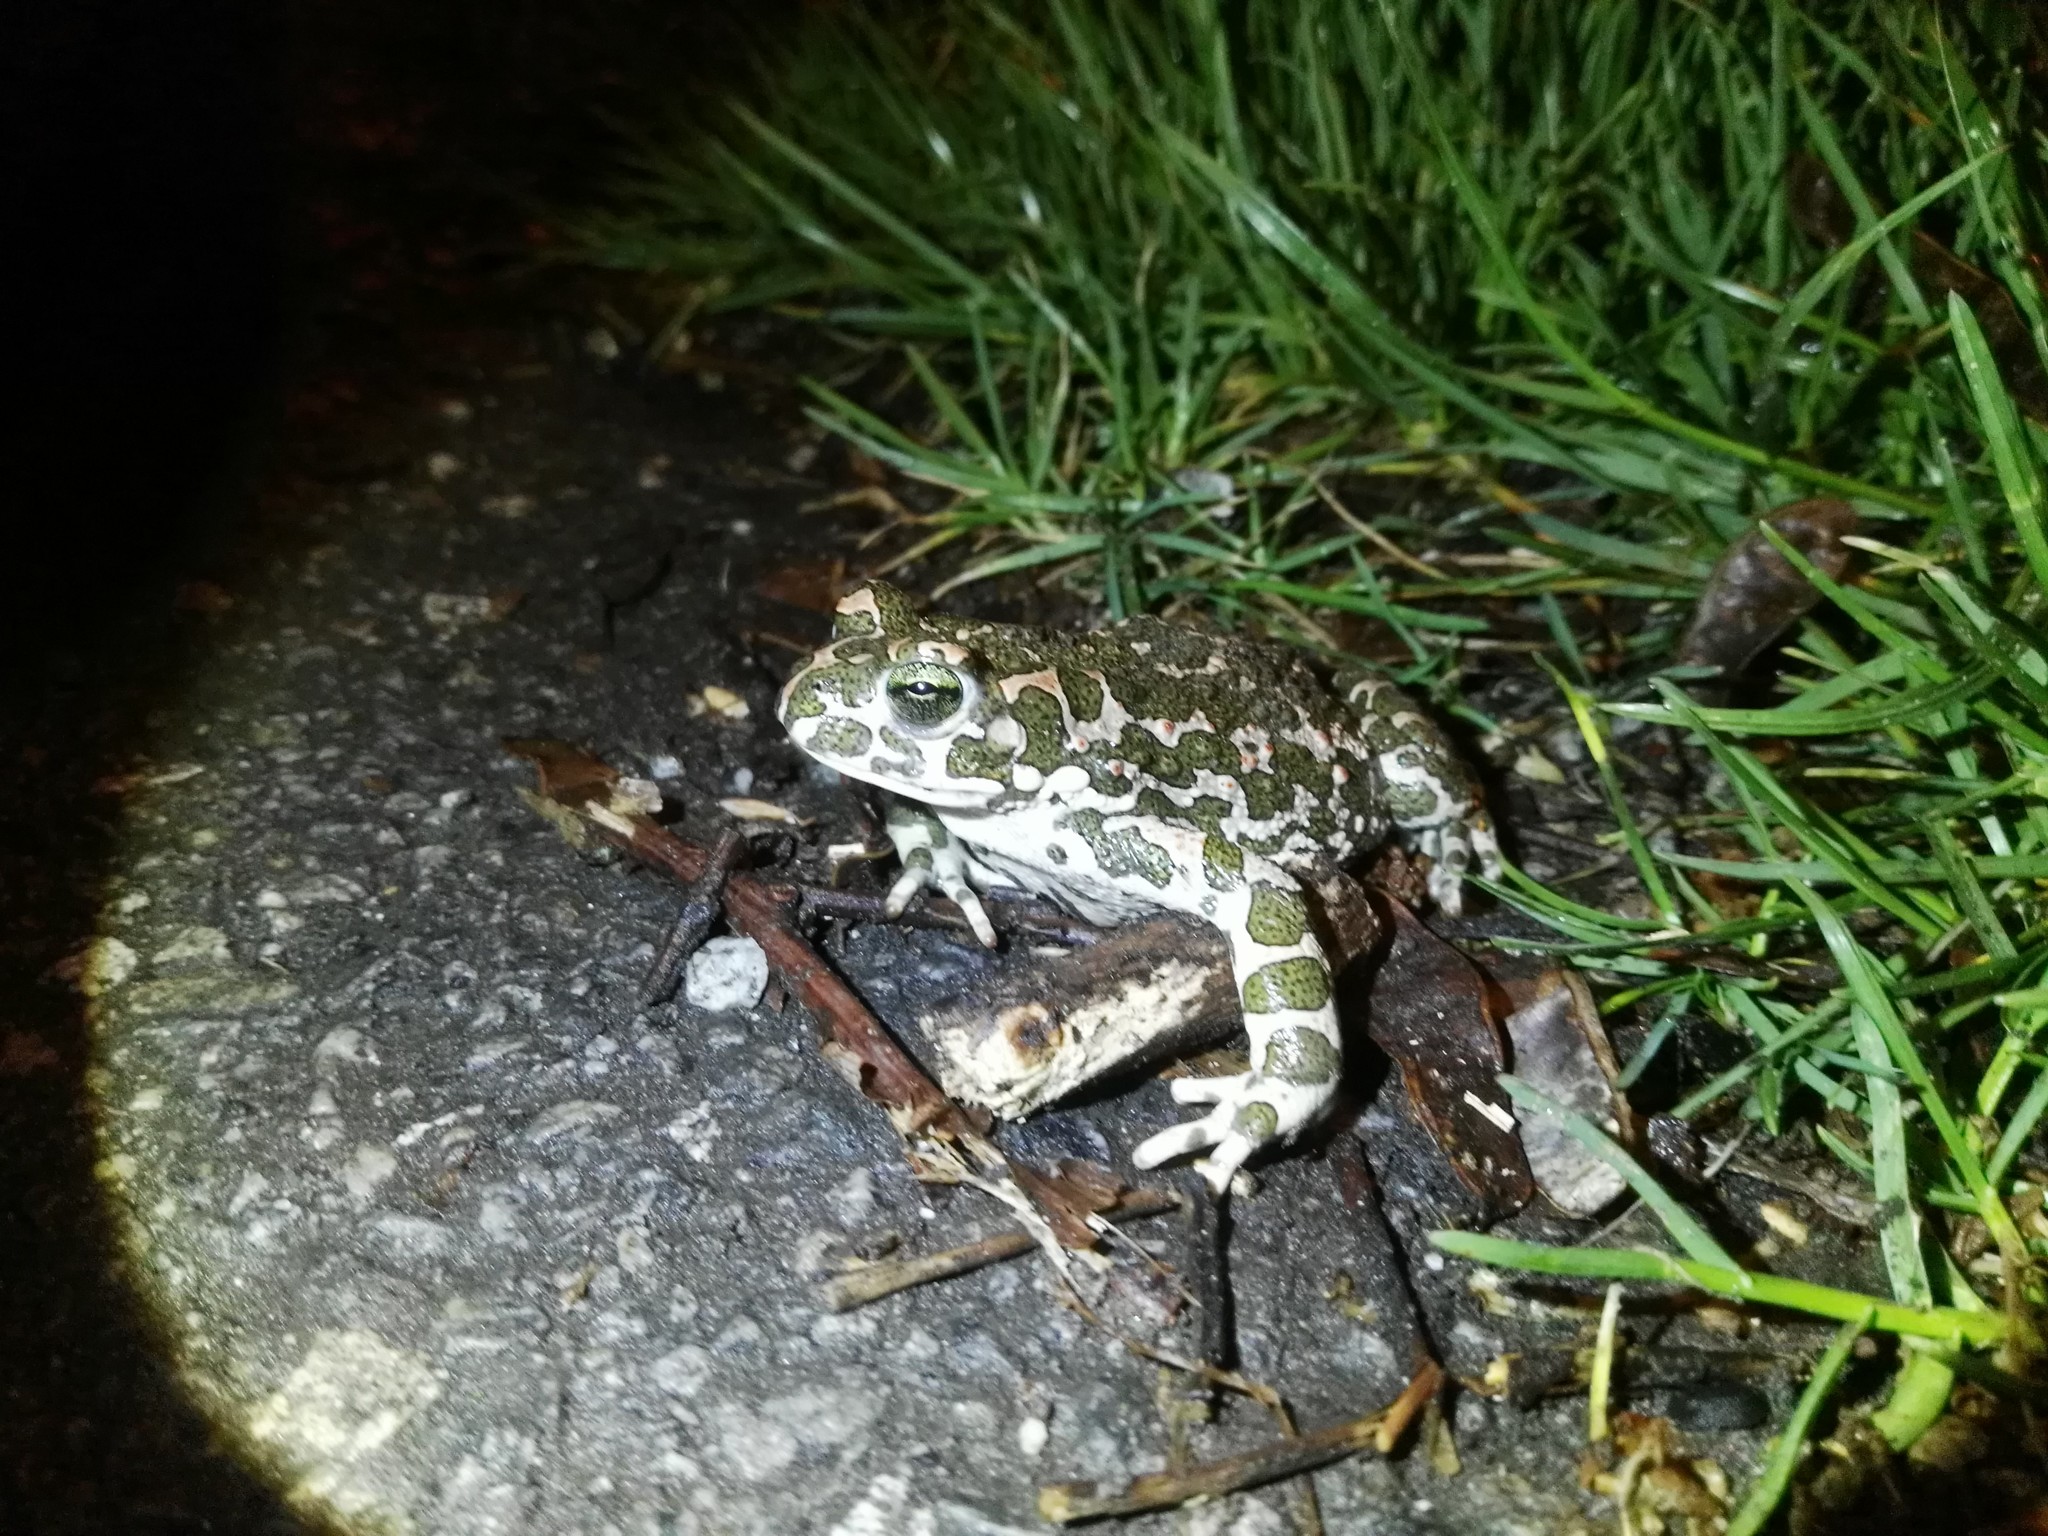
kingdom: Animalia
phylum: Chordata
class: Amphibia
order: Anura
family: Bufonidae
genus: Bufotes
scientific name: Bufotes viridis
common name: European green toad
